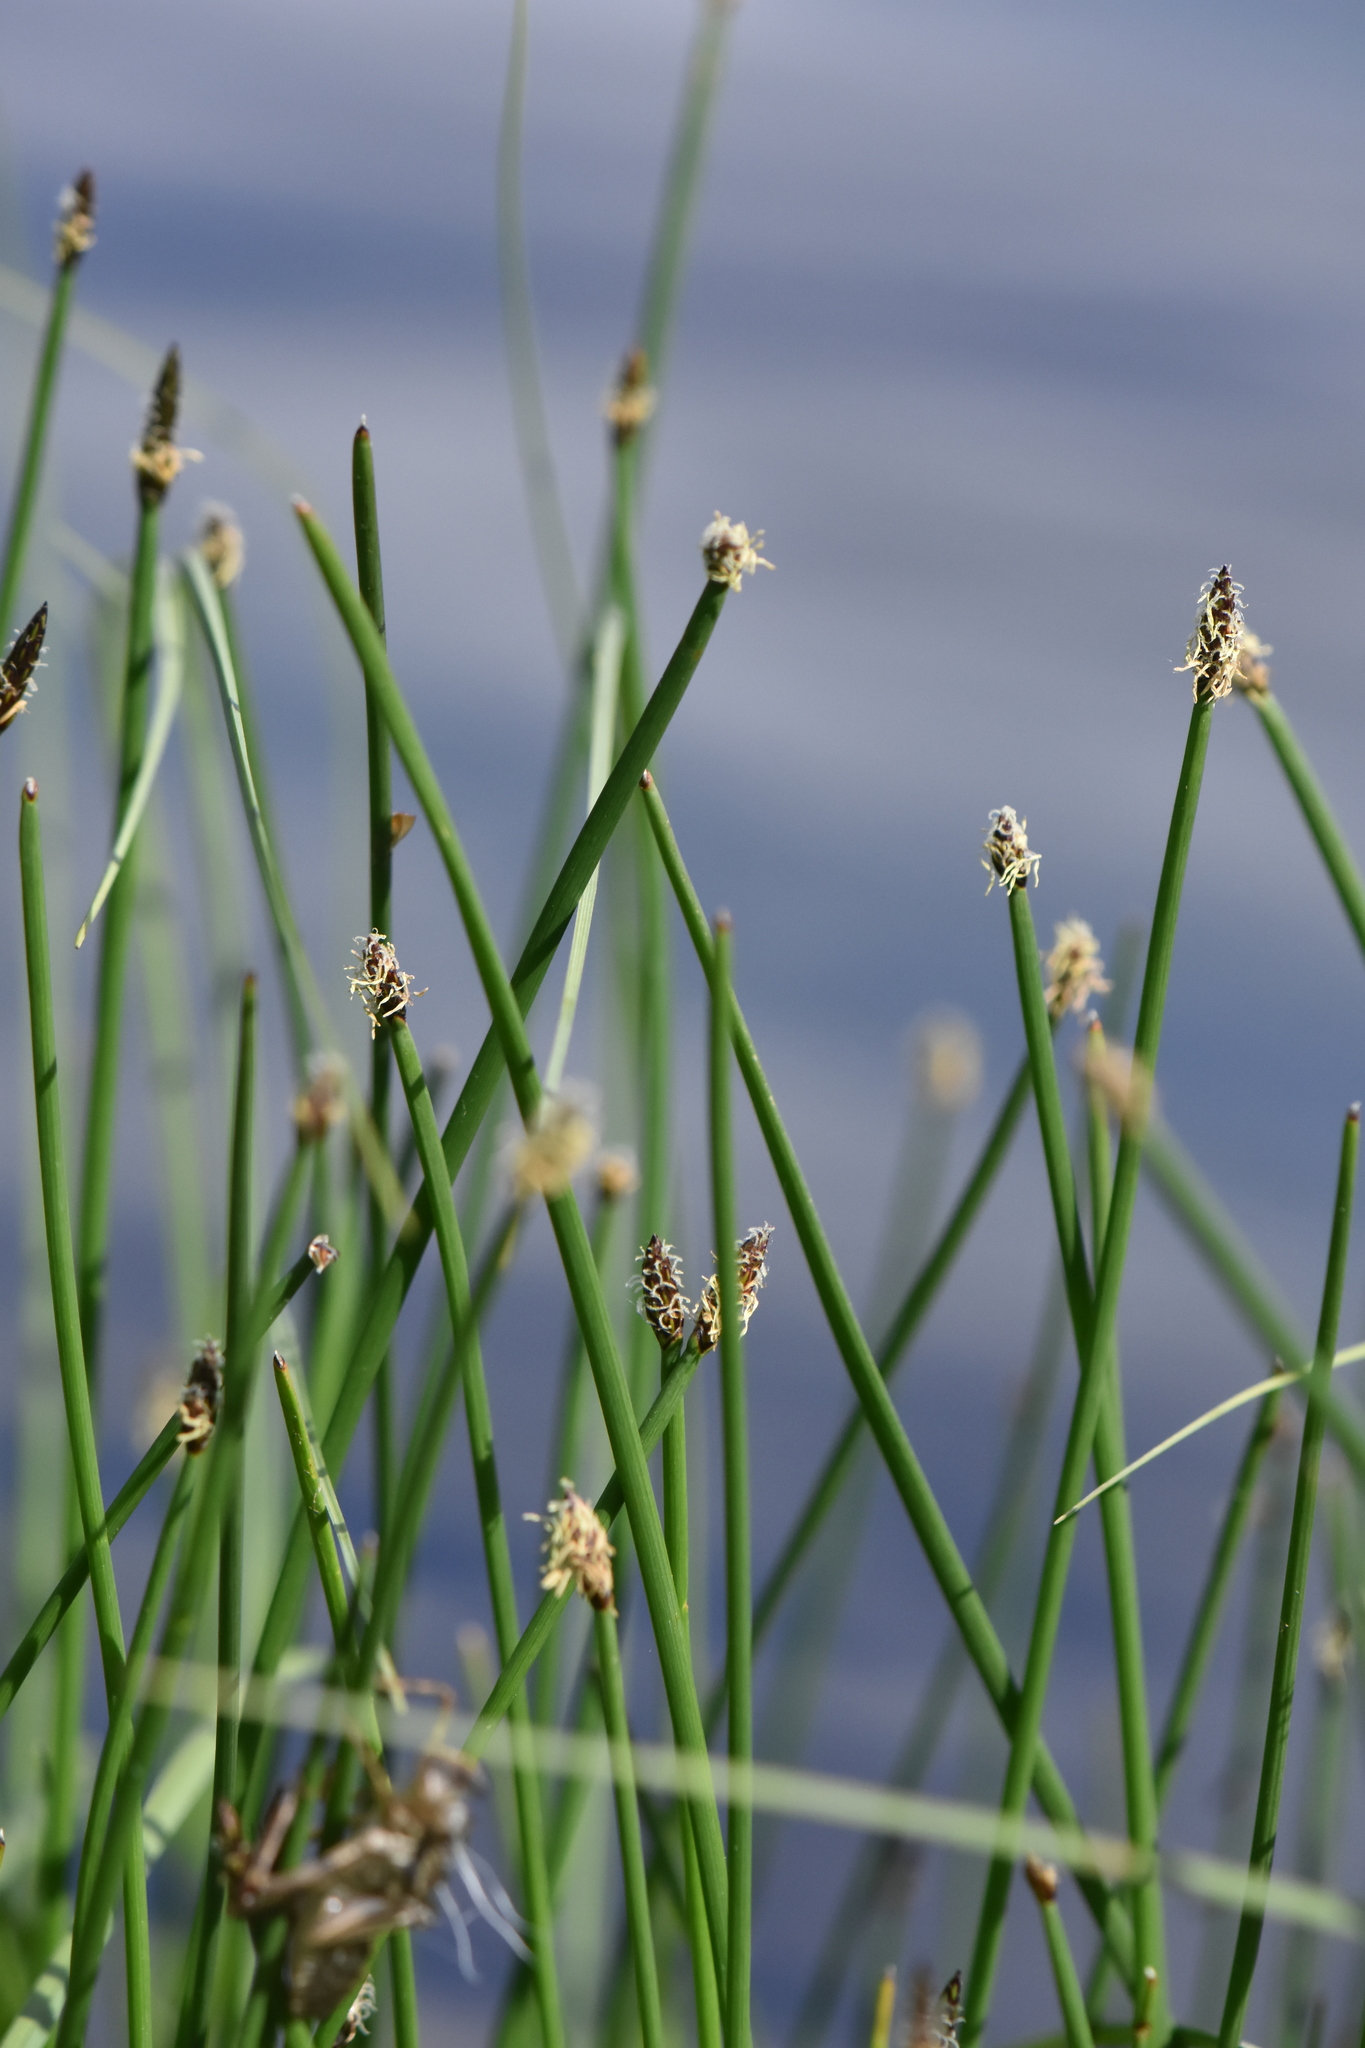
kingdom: Plantae
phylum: Tracheophyta
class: Liliopsida
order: Poales
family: Cyperaceae
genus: Eleocharis
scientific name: Eleocharis palustris
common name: Common spike-rush
